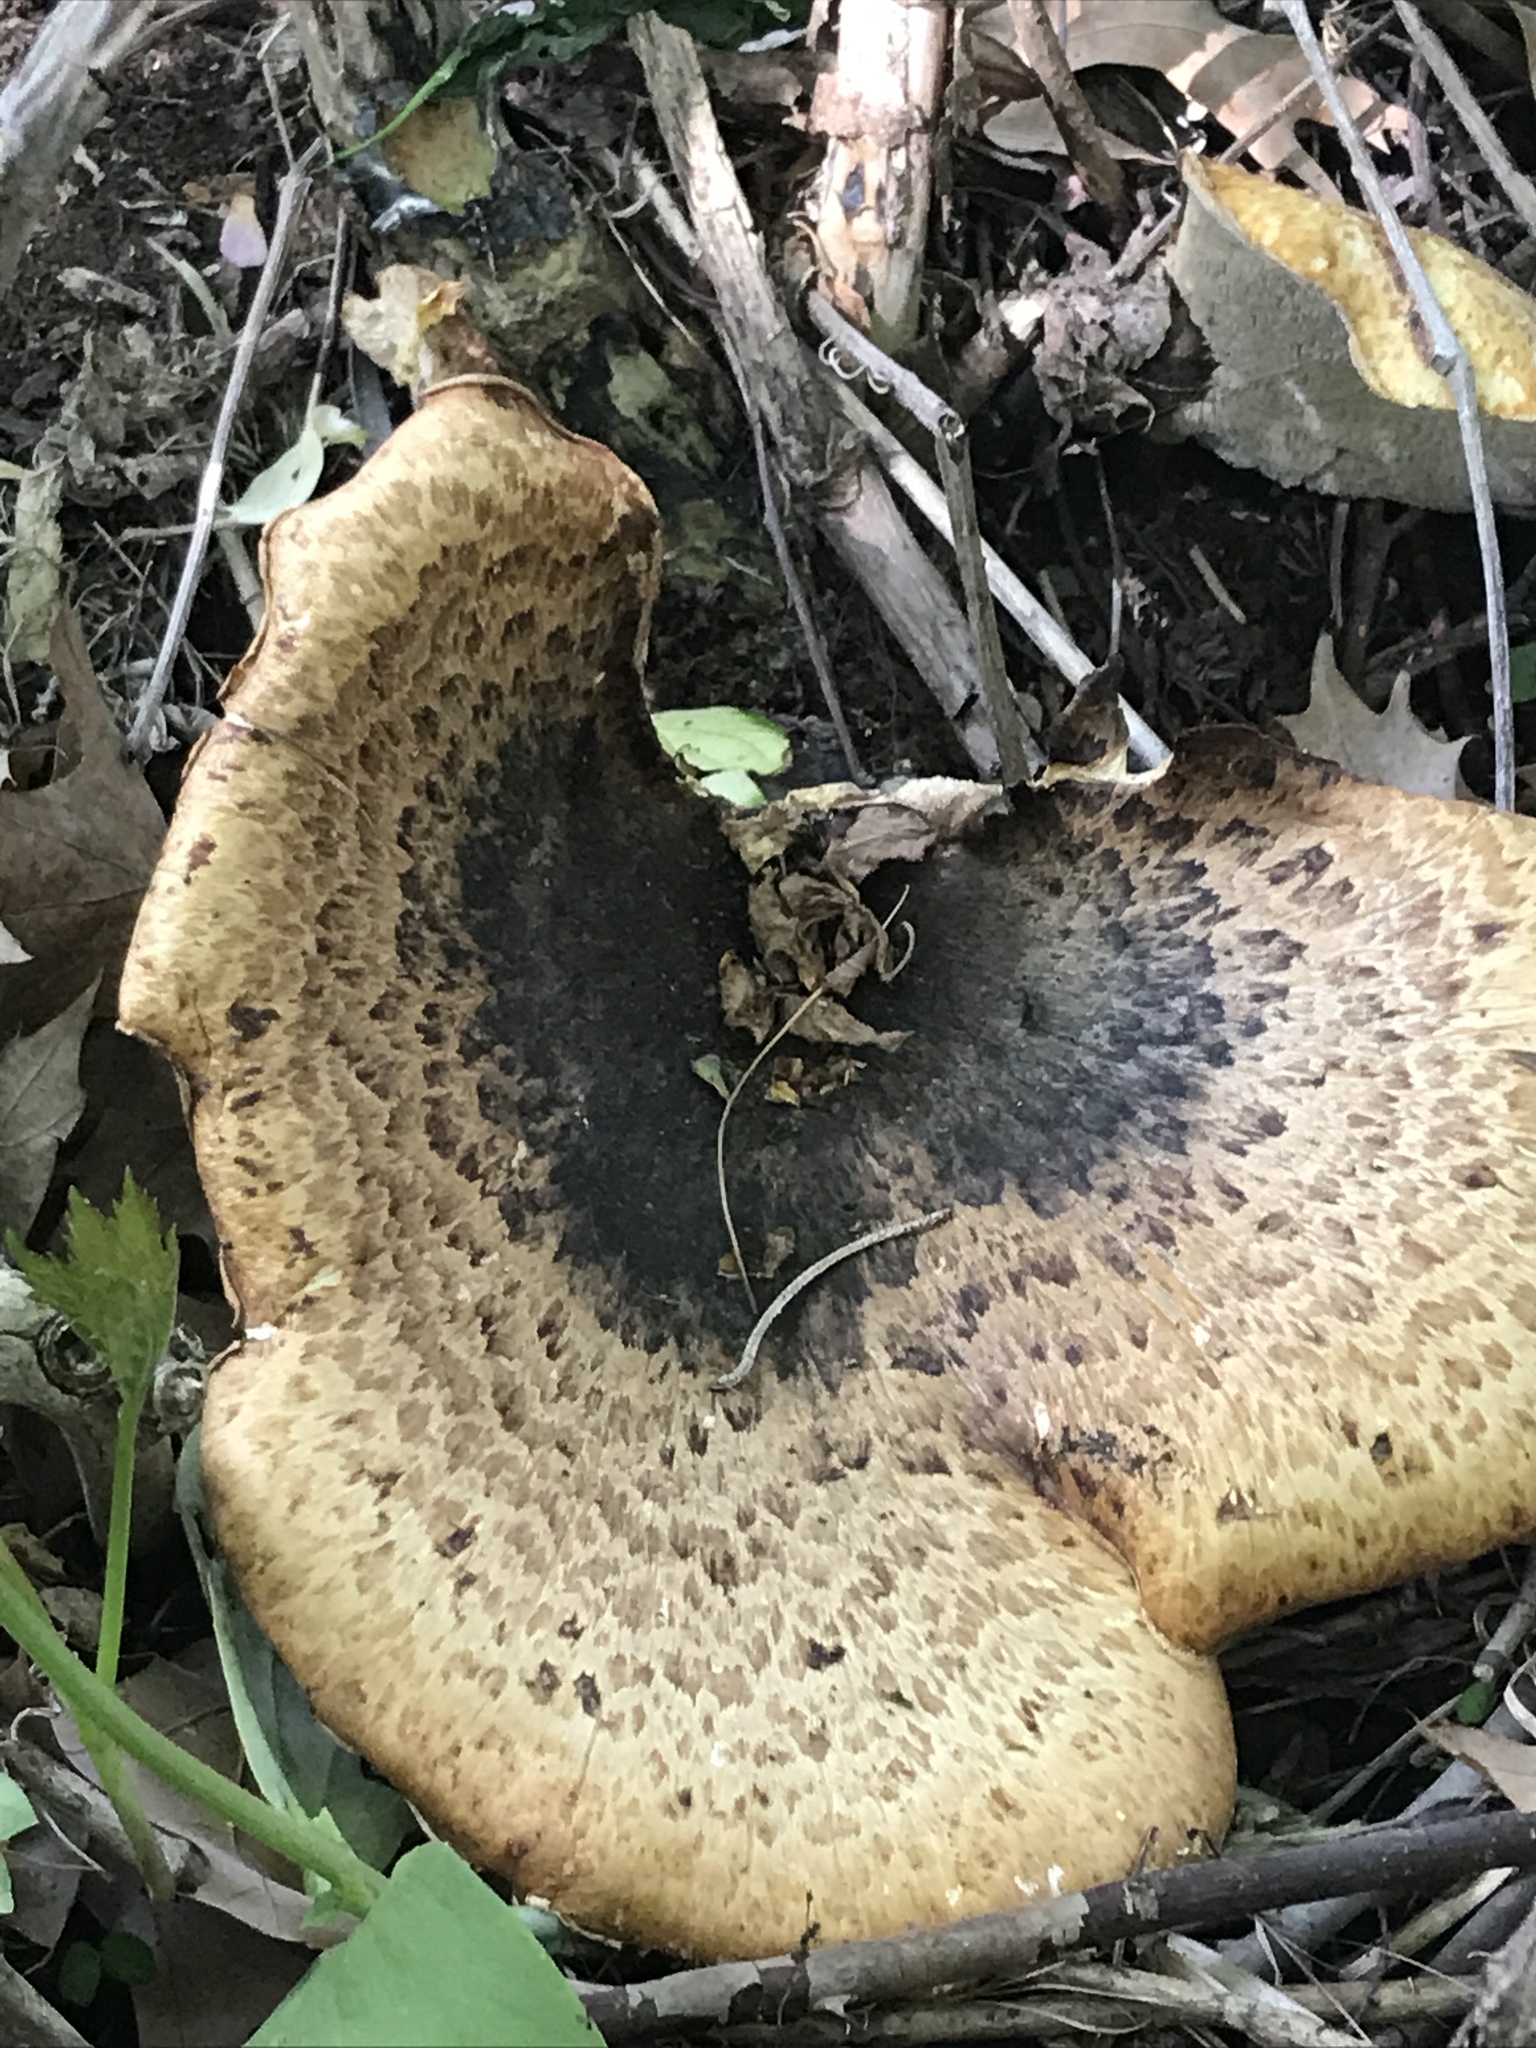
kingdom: Fungi
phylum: Basidiomycota
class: Agaricomycetes
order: Polyporales
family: Polyporaceae
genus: Cerioporus
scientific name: Cerioporus squamosus
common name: Dryad's saddle
